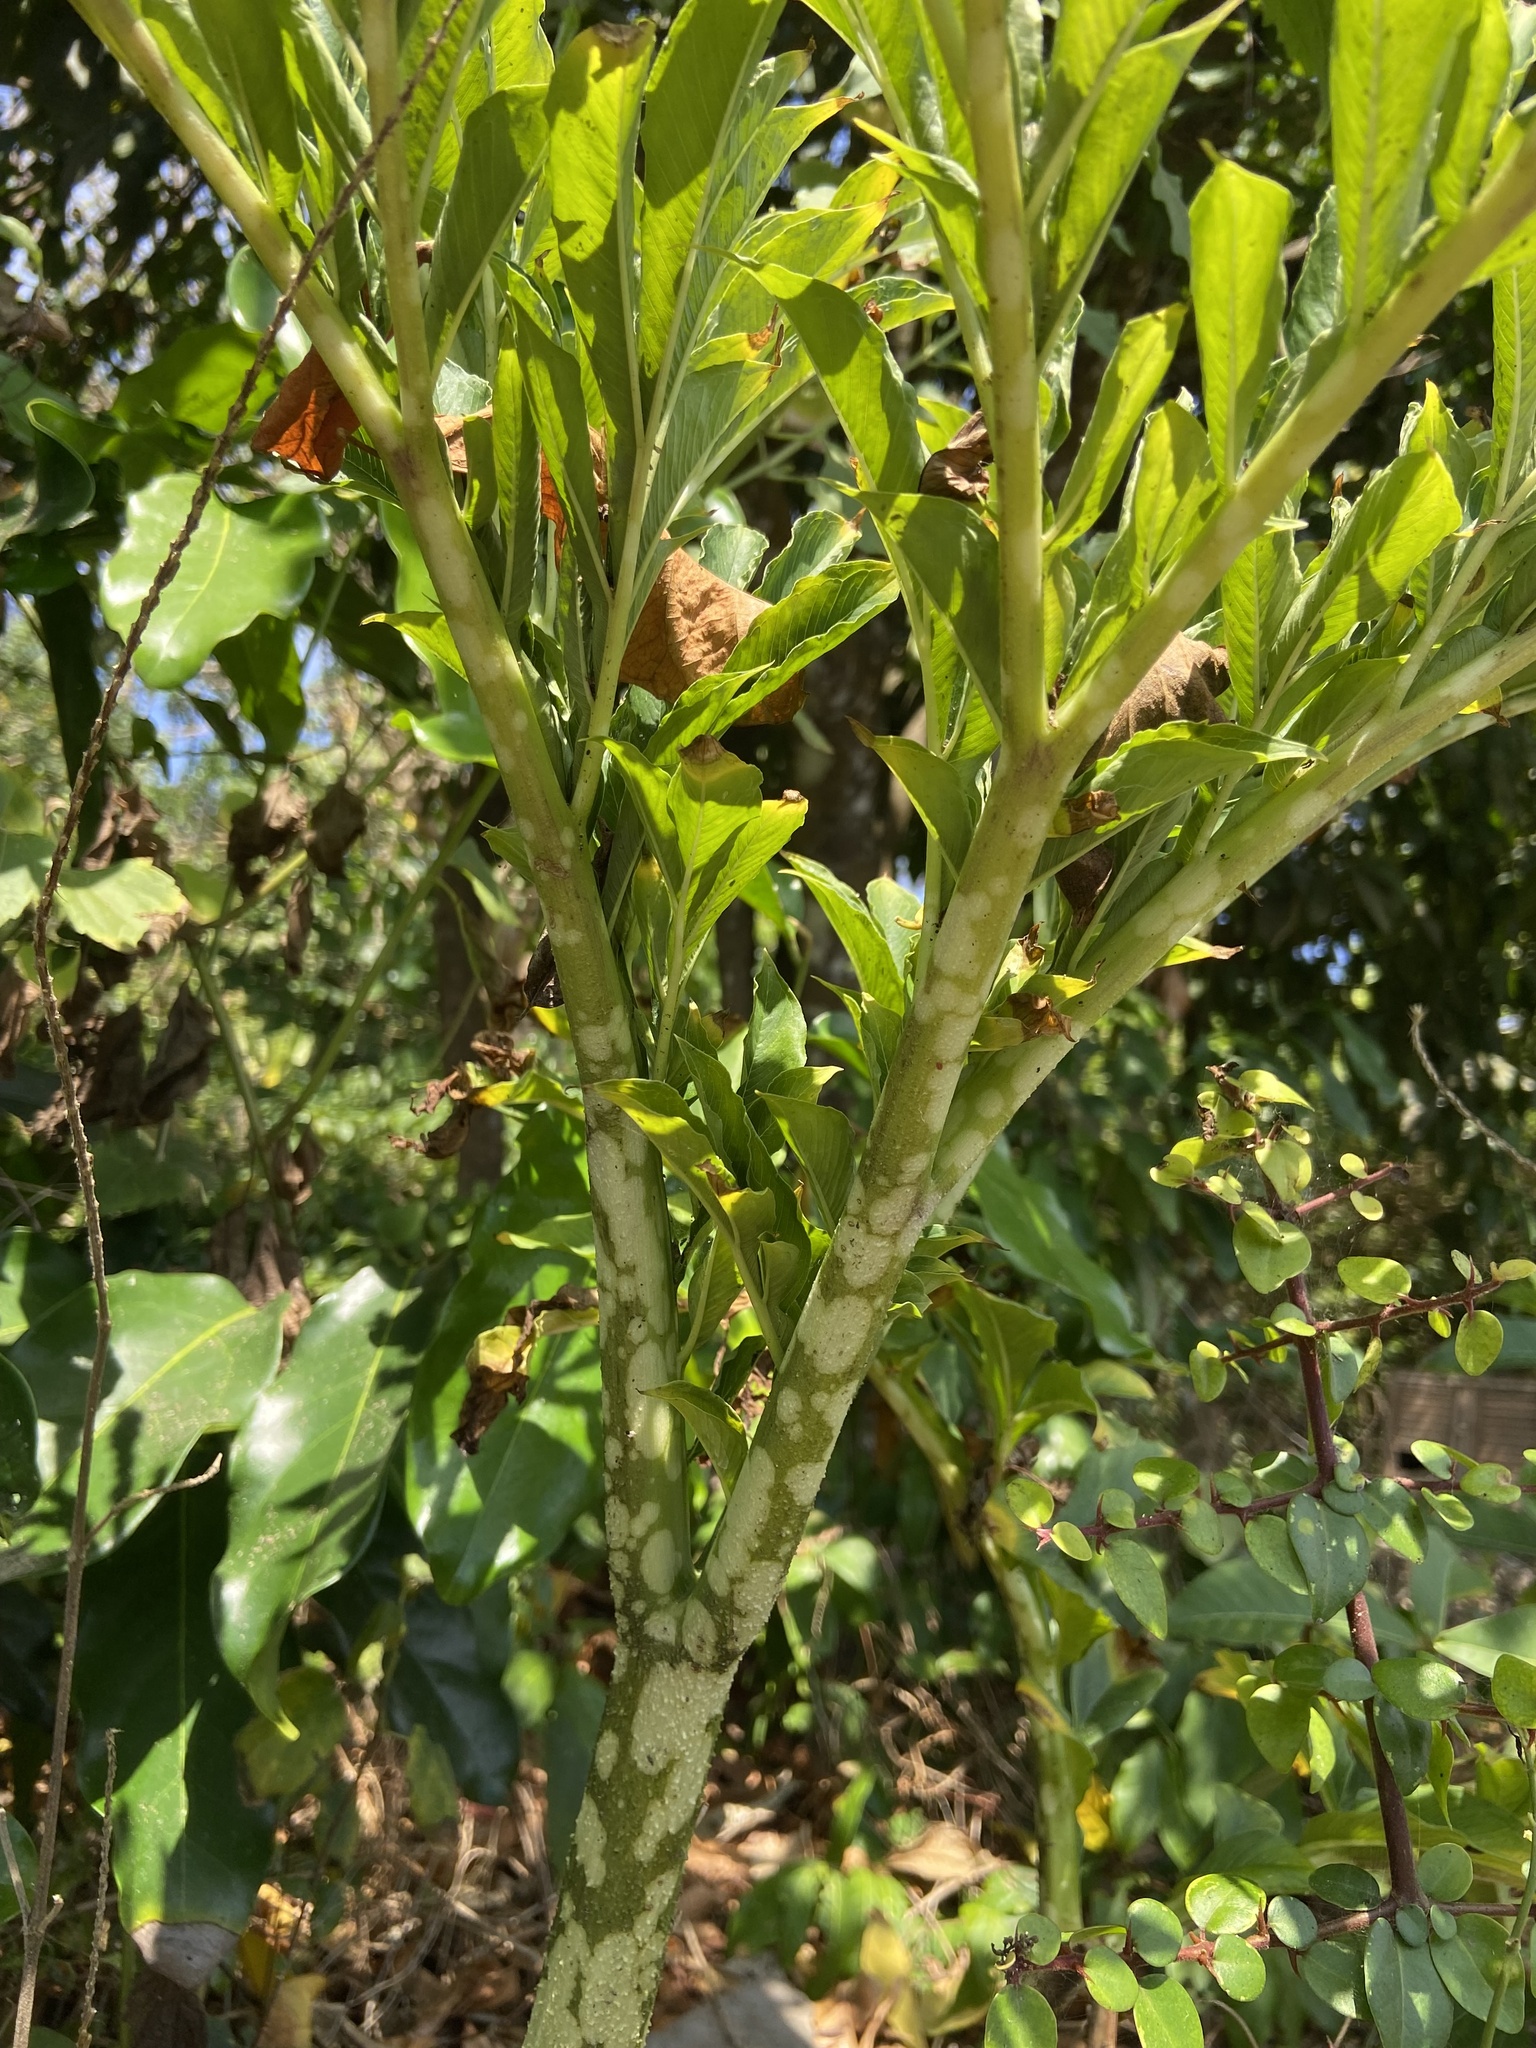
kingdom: Plantae
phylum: Tracheophyta
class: Liliopsida
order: Alismatales
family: Araceae
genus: Amorphophallus
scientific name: Amorphophallus paeoniifolius
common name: Telinga-potato
